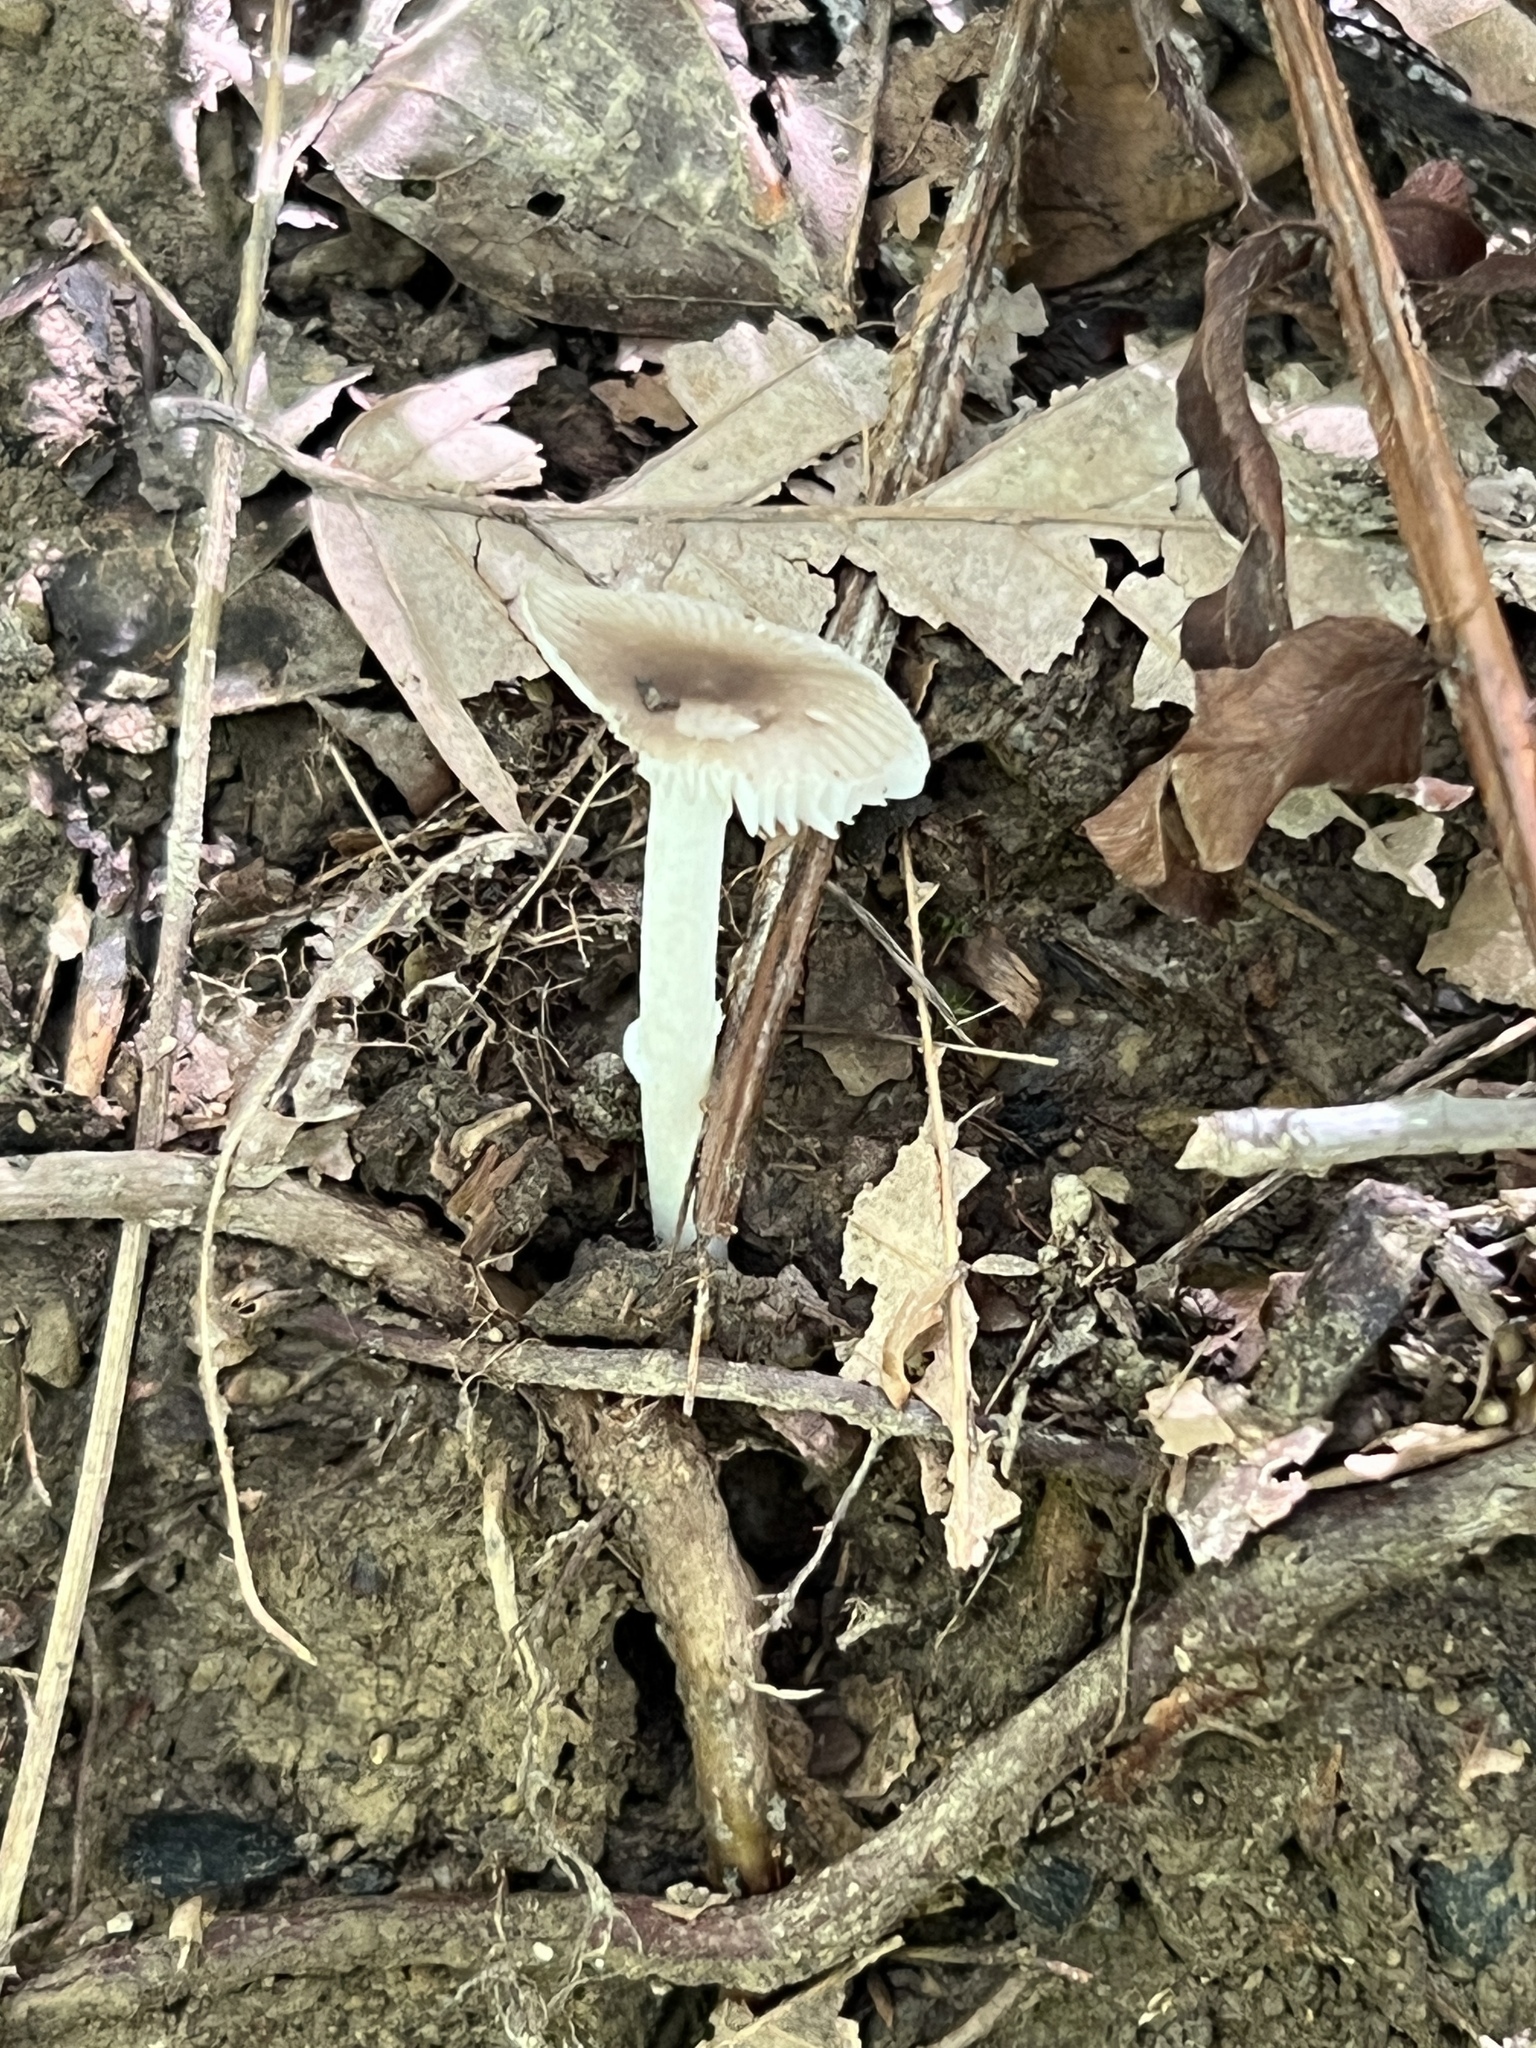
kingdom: Fungi
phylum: Basidiomycota
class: Agaricomycetes
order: Agaricales
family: Amanitaceae
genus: Amanita
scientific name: Amanita virginiana
